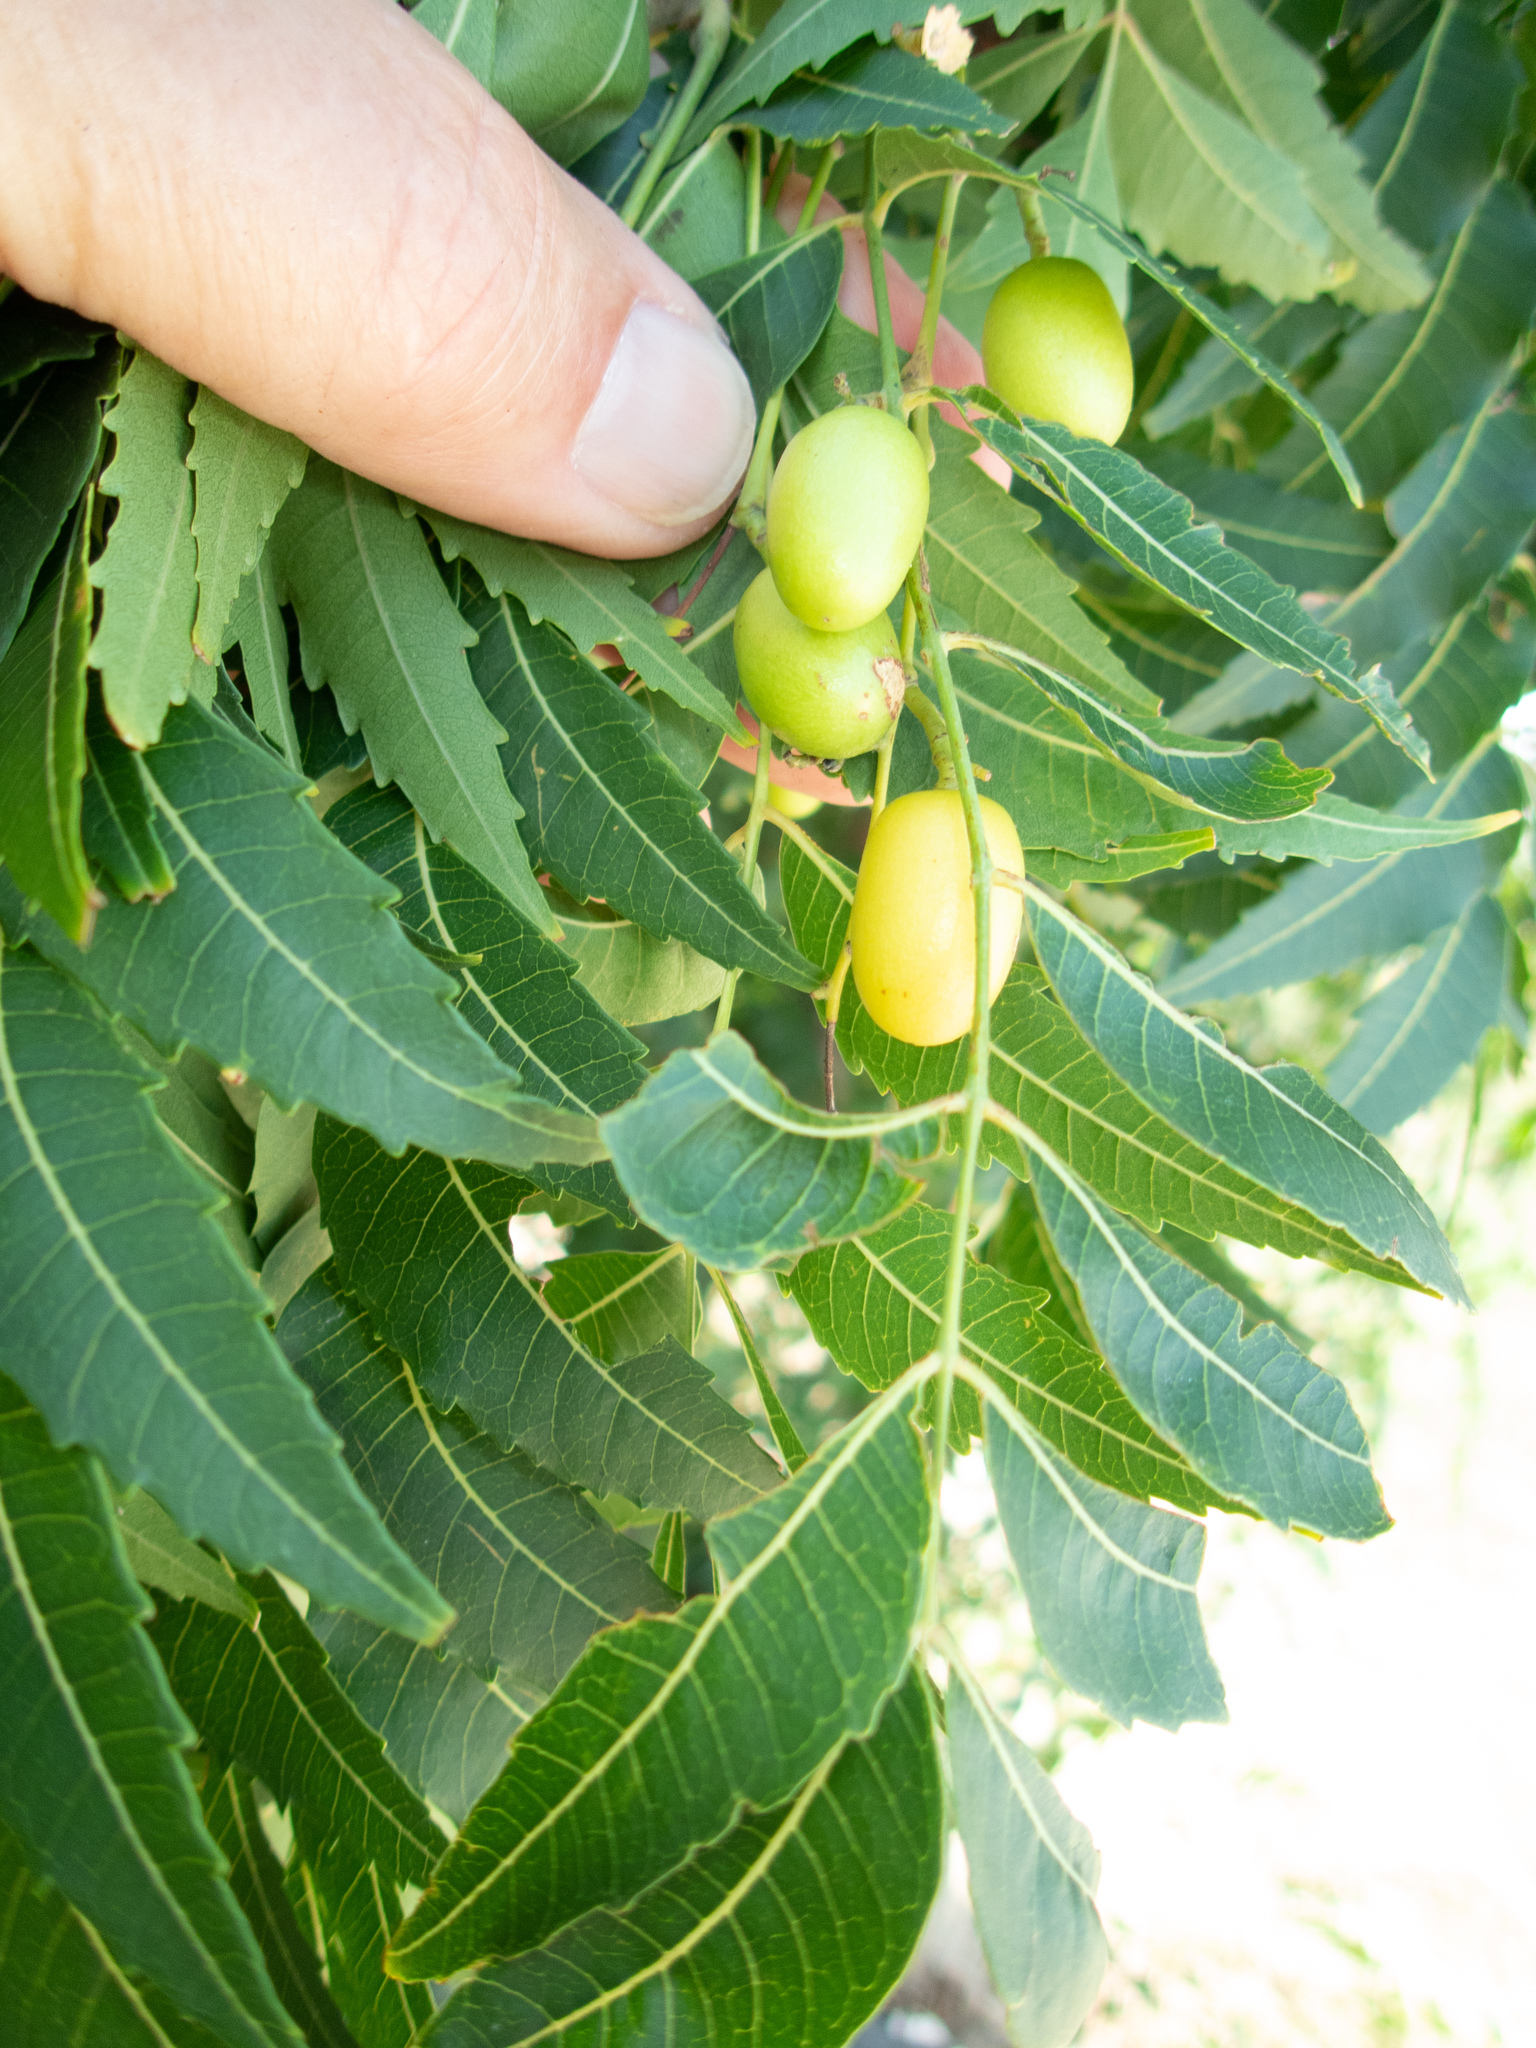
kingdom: Plantae
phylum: Tracheophyta
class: Magnoliopsida
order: Sapindales
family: Meliaceae
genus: Azadirachta
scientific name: Azadirachta indica
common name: Neem
